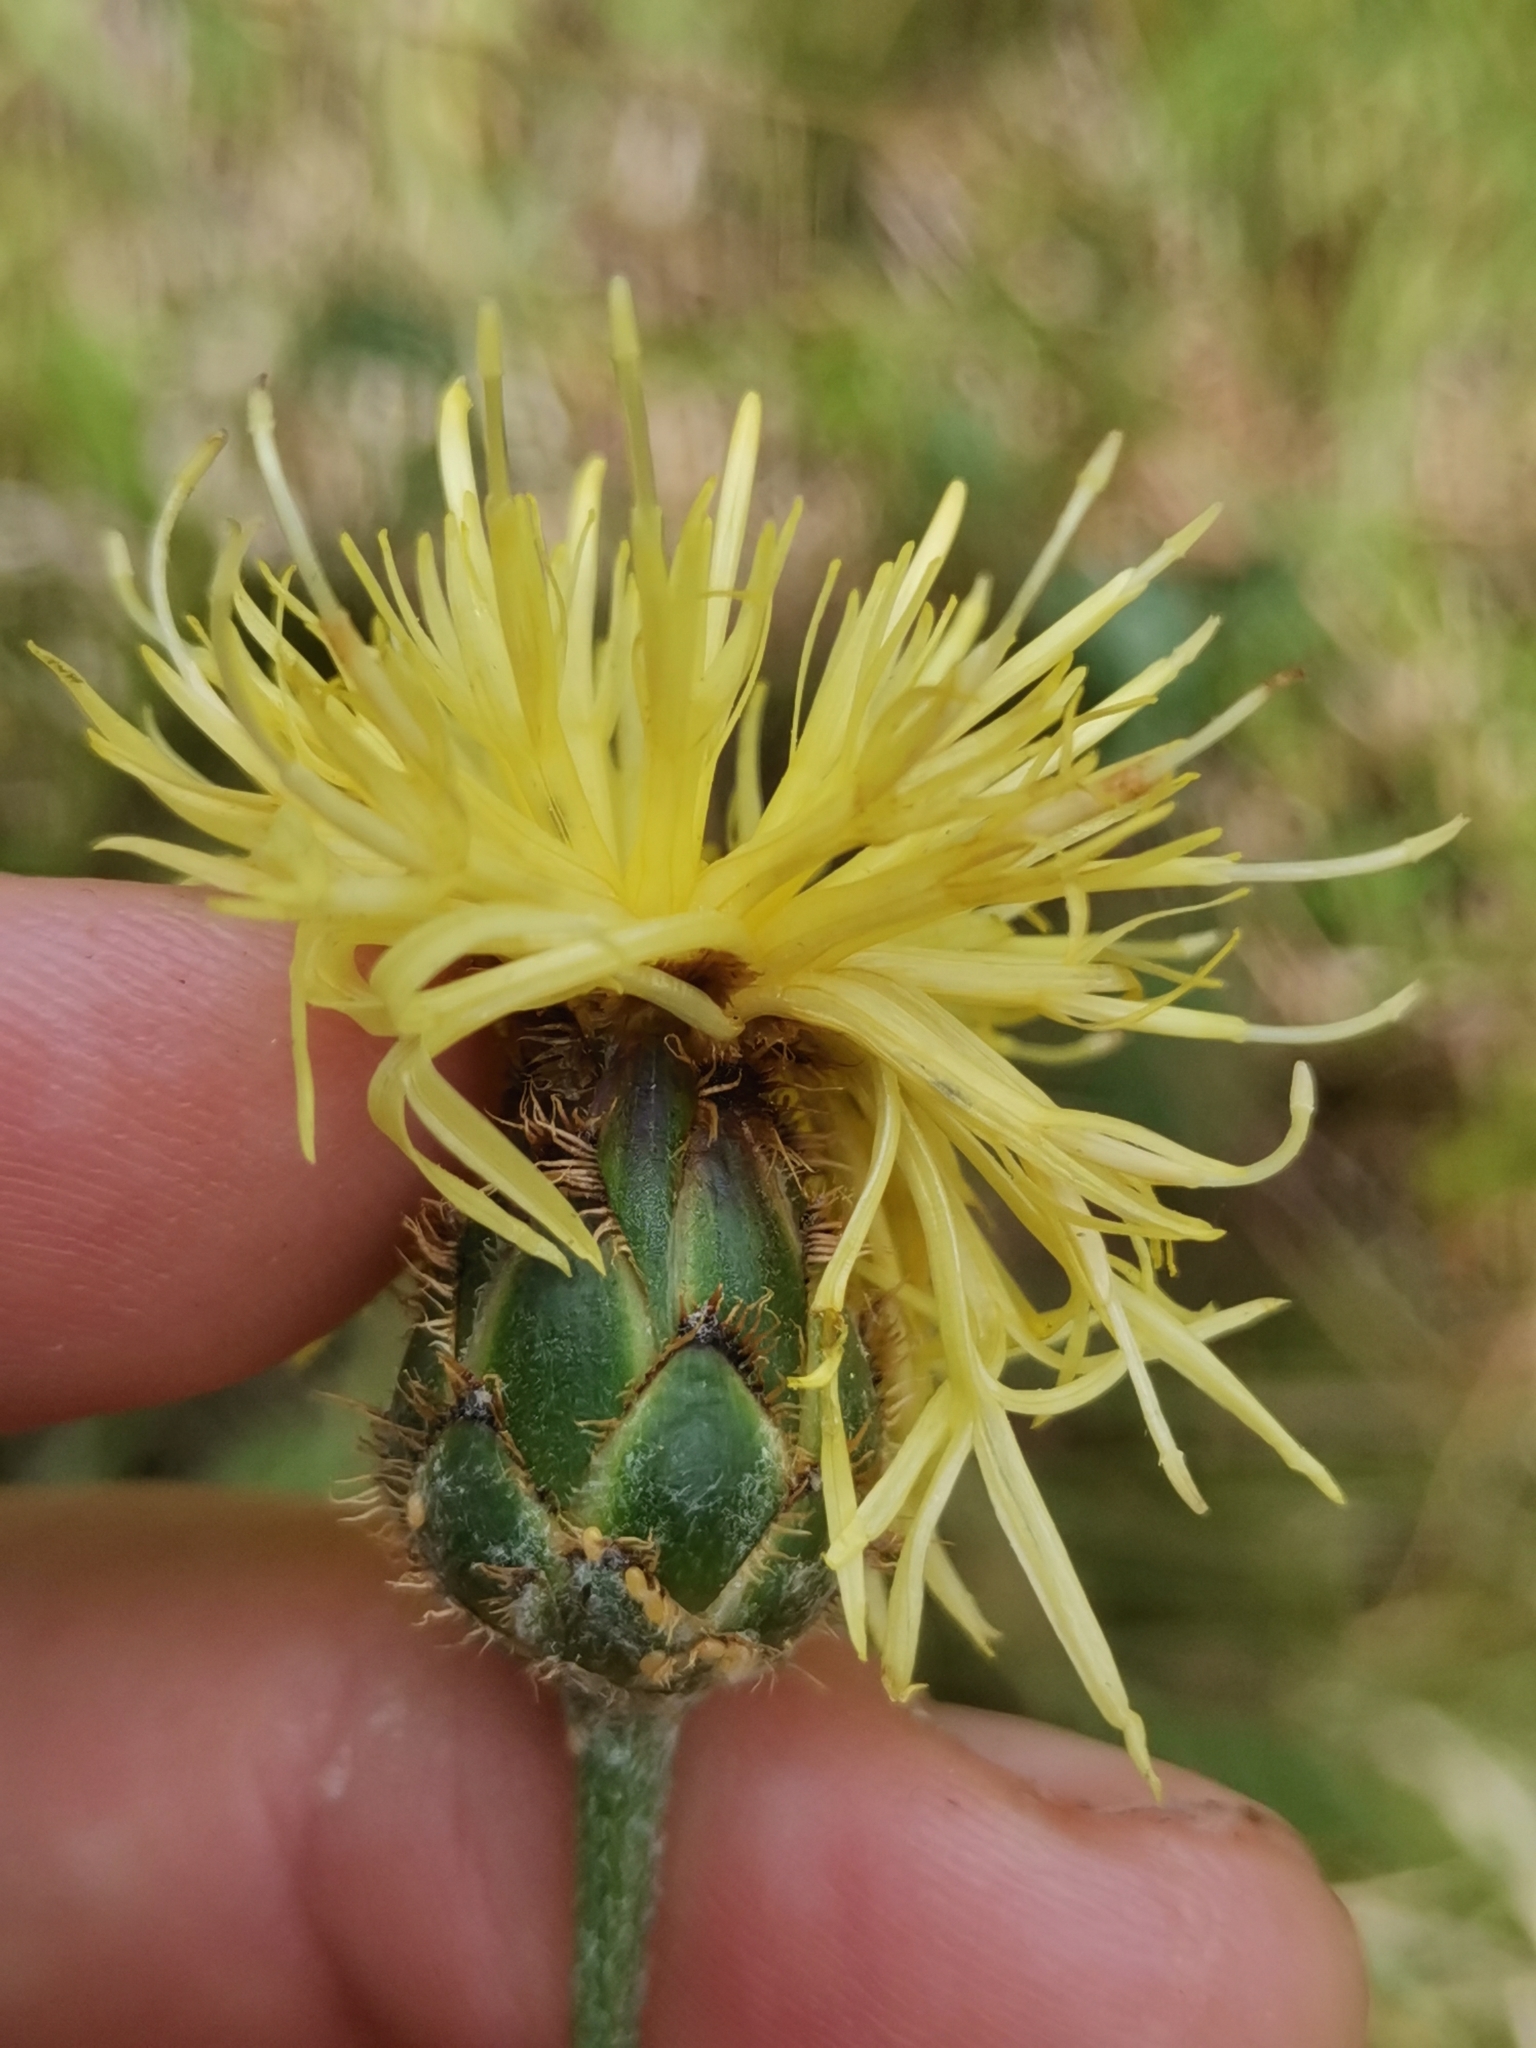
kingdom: Plantae
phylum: Tracheophyta
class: Magnoliopsida
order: Asterales
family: Asteraceae
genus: Centaurea
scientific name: Centaurea rupestris
